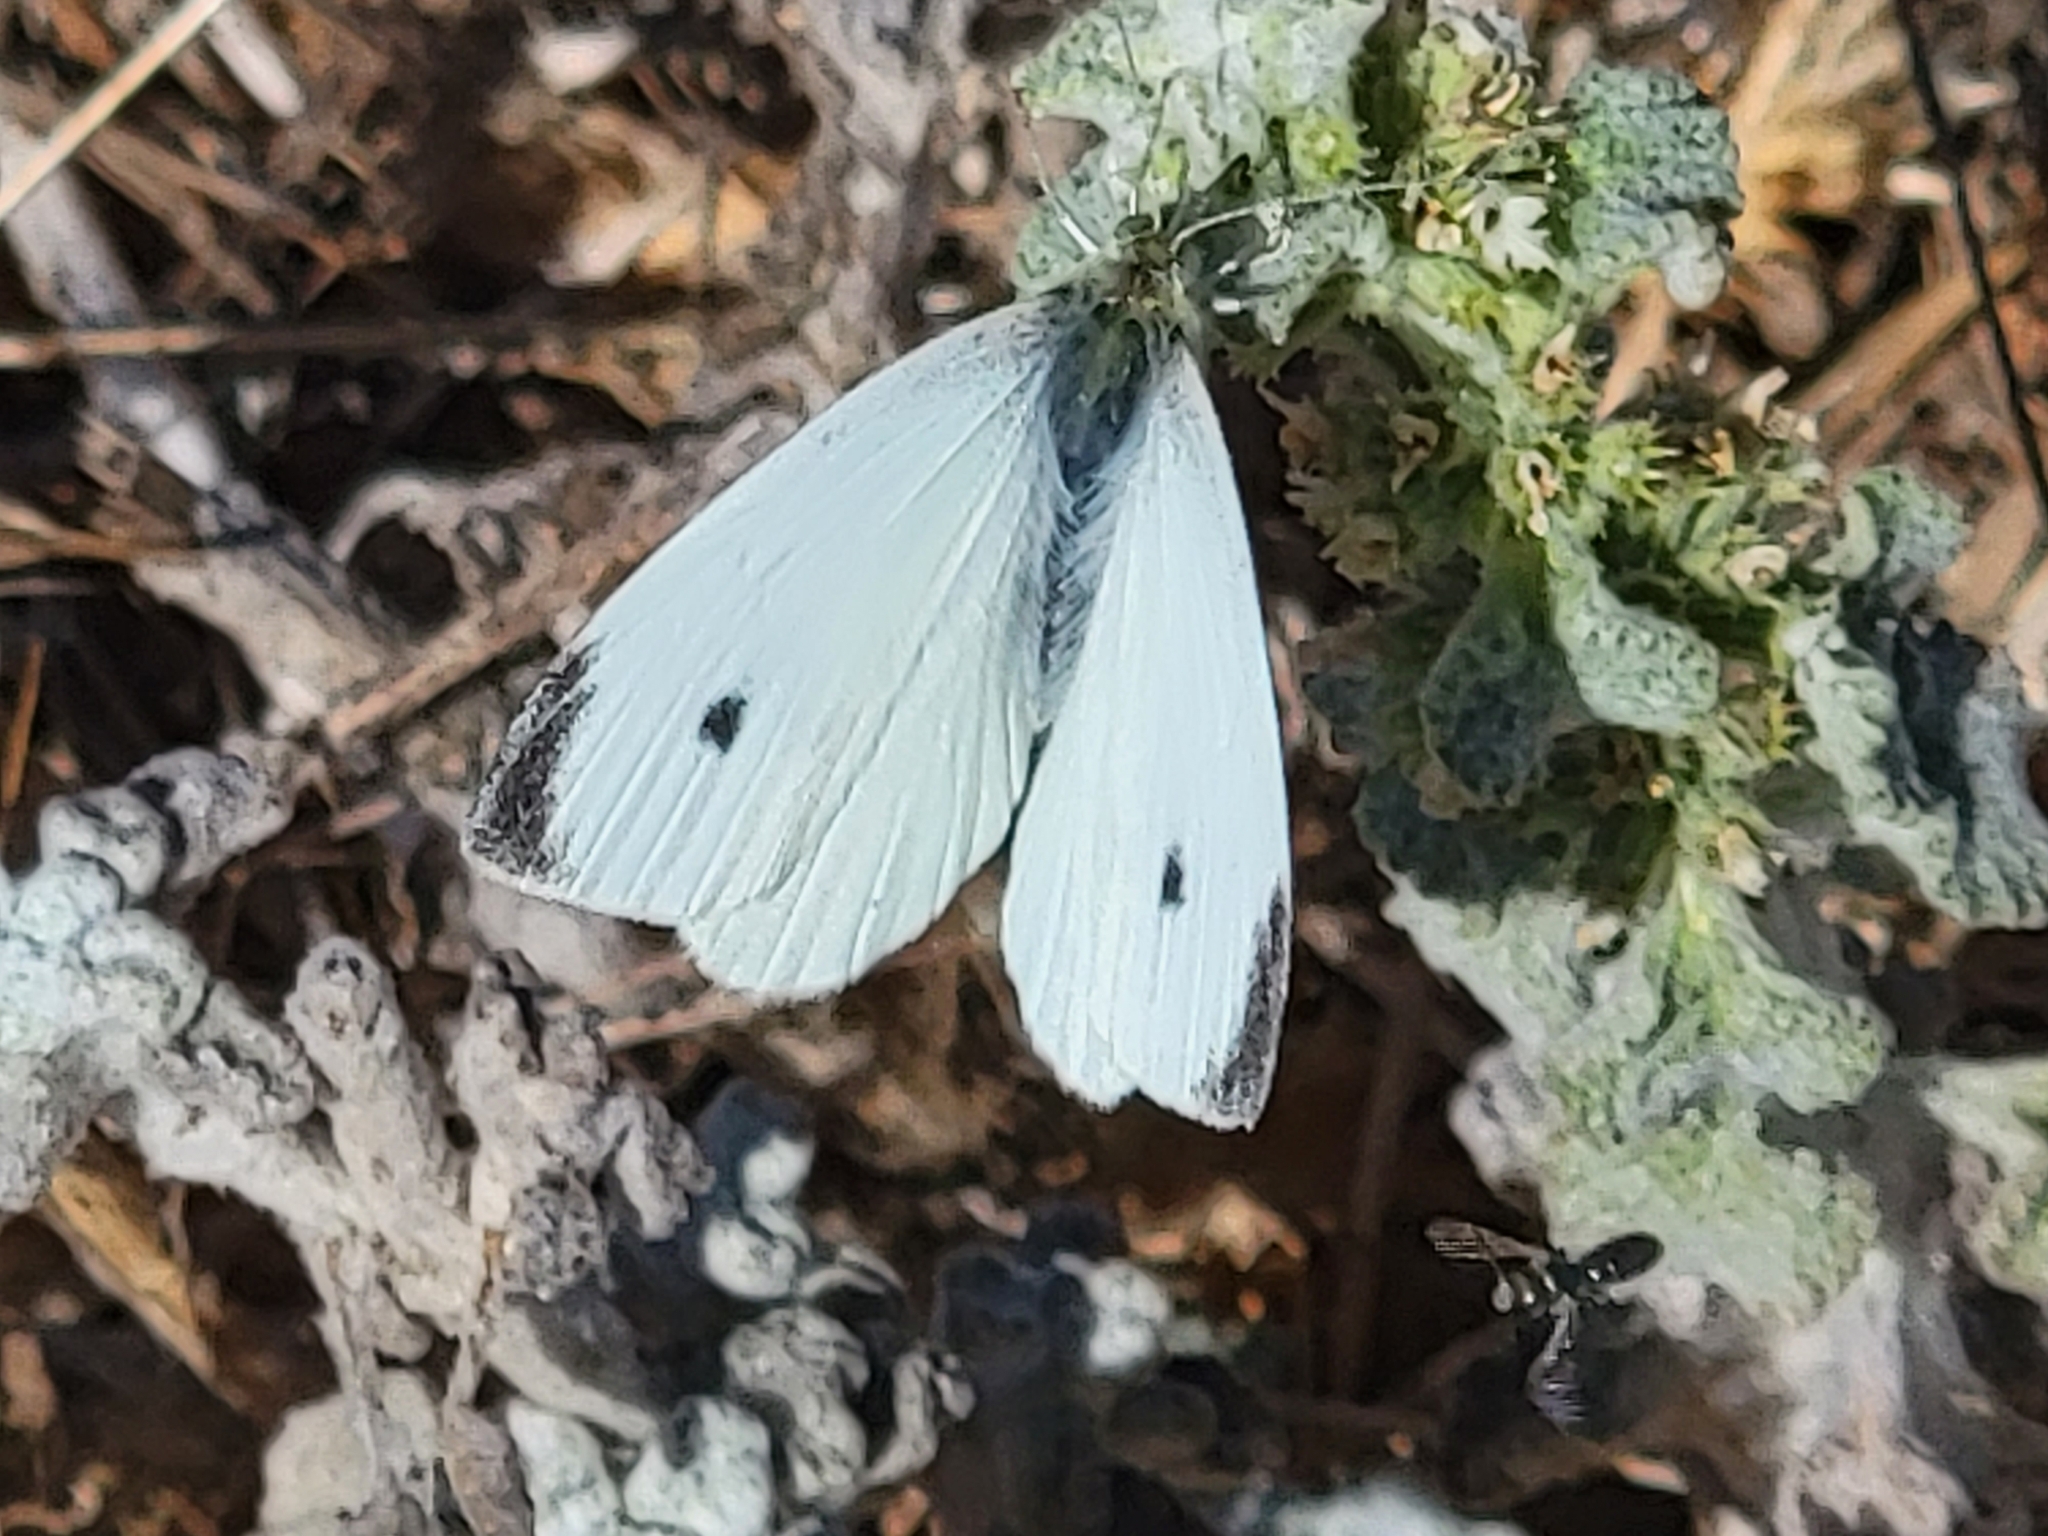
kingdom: Animalia
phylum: Arthropoda
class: Insecta
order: Lepidoptera
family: Pieridae
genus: Pieris
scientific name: Pieris rapae
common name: Small white
